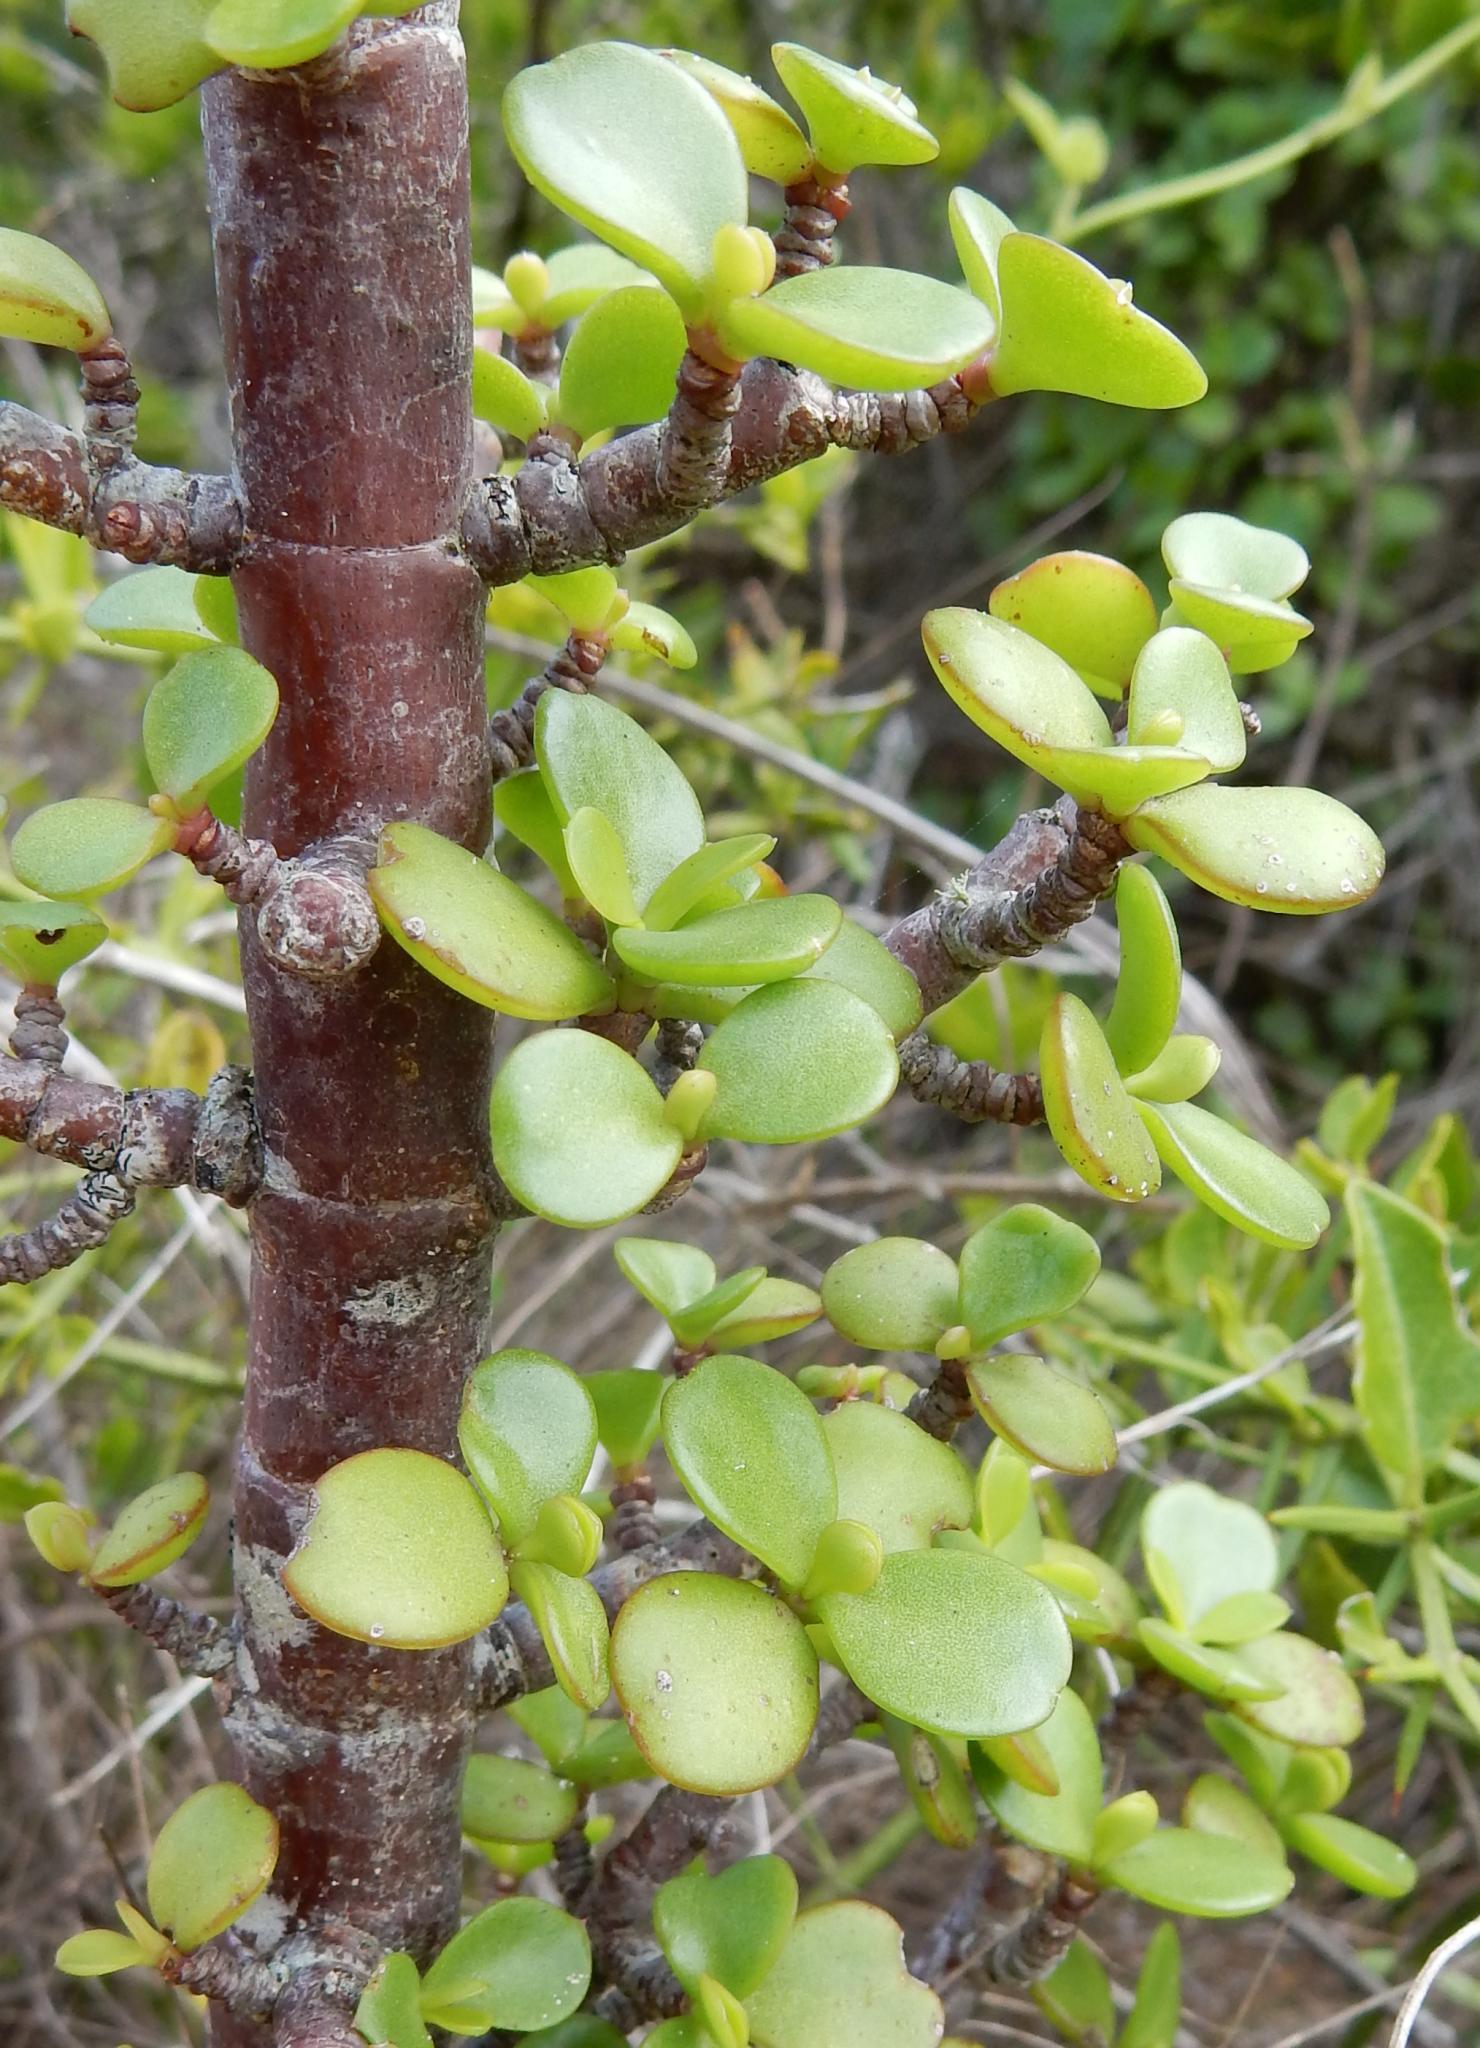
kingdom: Plantae
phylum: Tracheophyta
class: Magnoliopsida
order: Caryophyllales
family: Didiereaceae
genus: Portulacaria
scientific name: Portulacaria afra
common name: Elephant-bush
